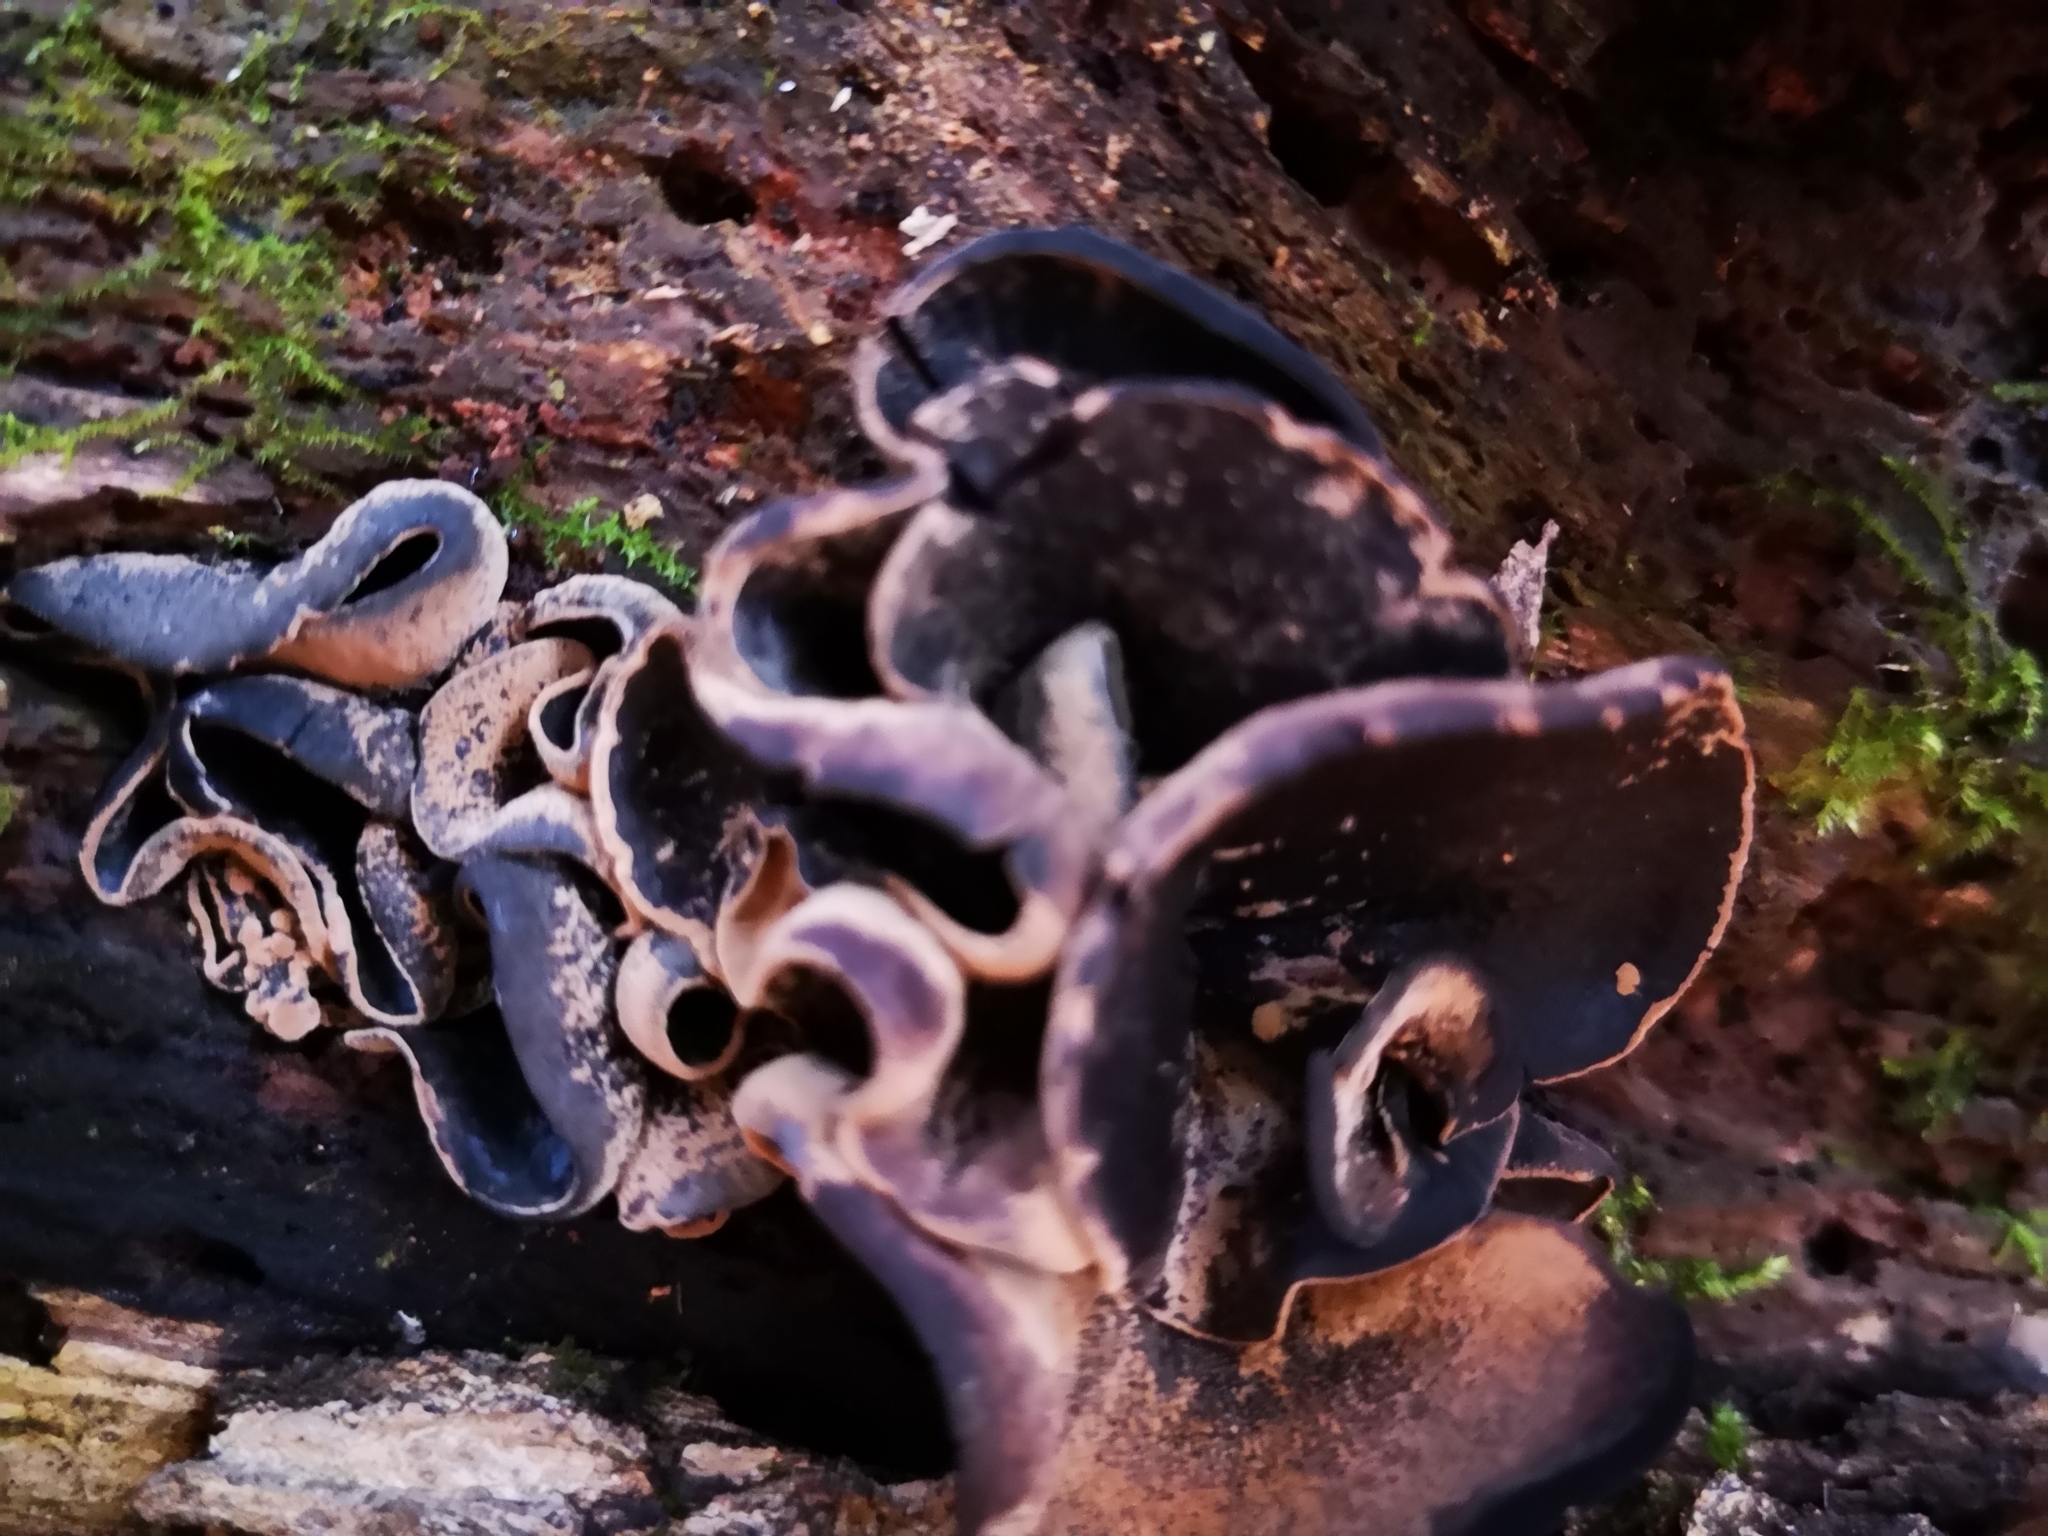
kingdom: Fungi
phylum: Ascomycota
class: Leotiomycetes
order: Helotiales
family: Cordieritidaceae
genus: Diplocarpa
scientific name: Diplocarpa irregularis
